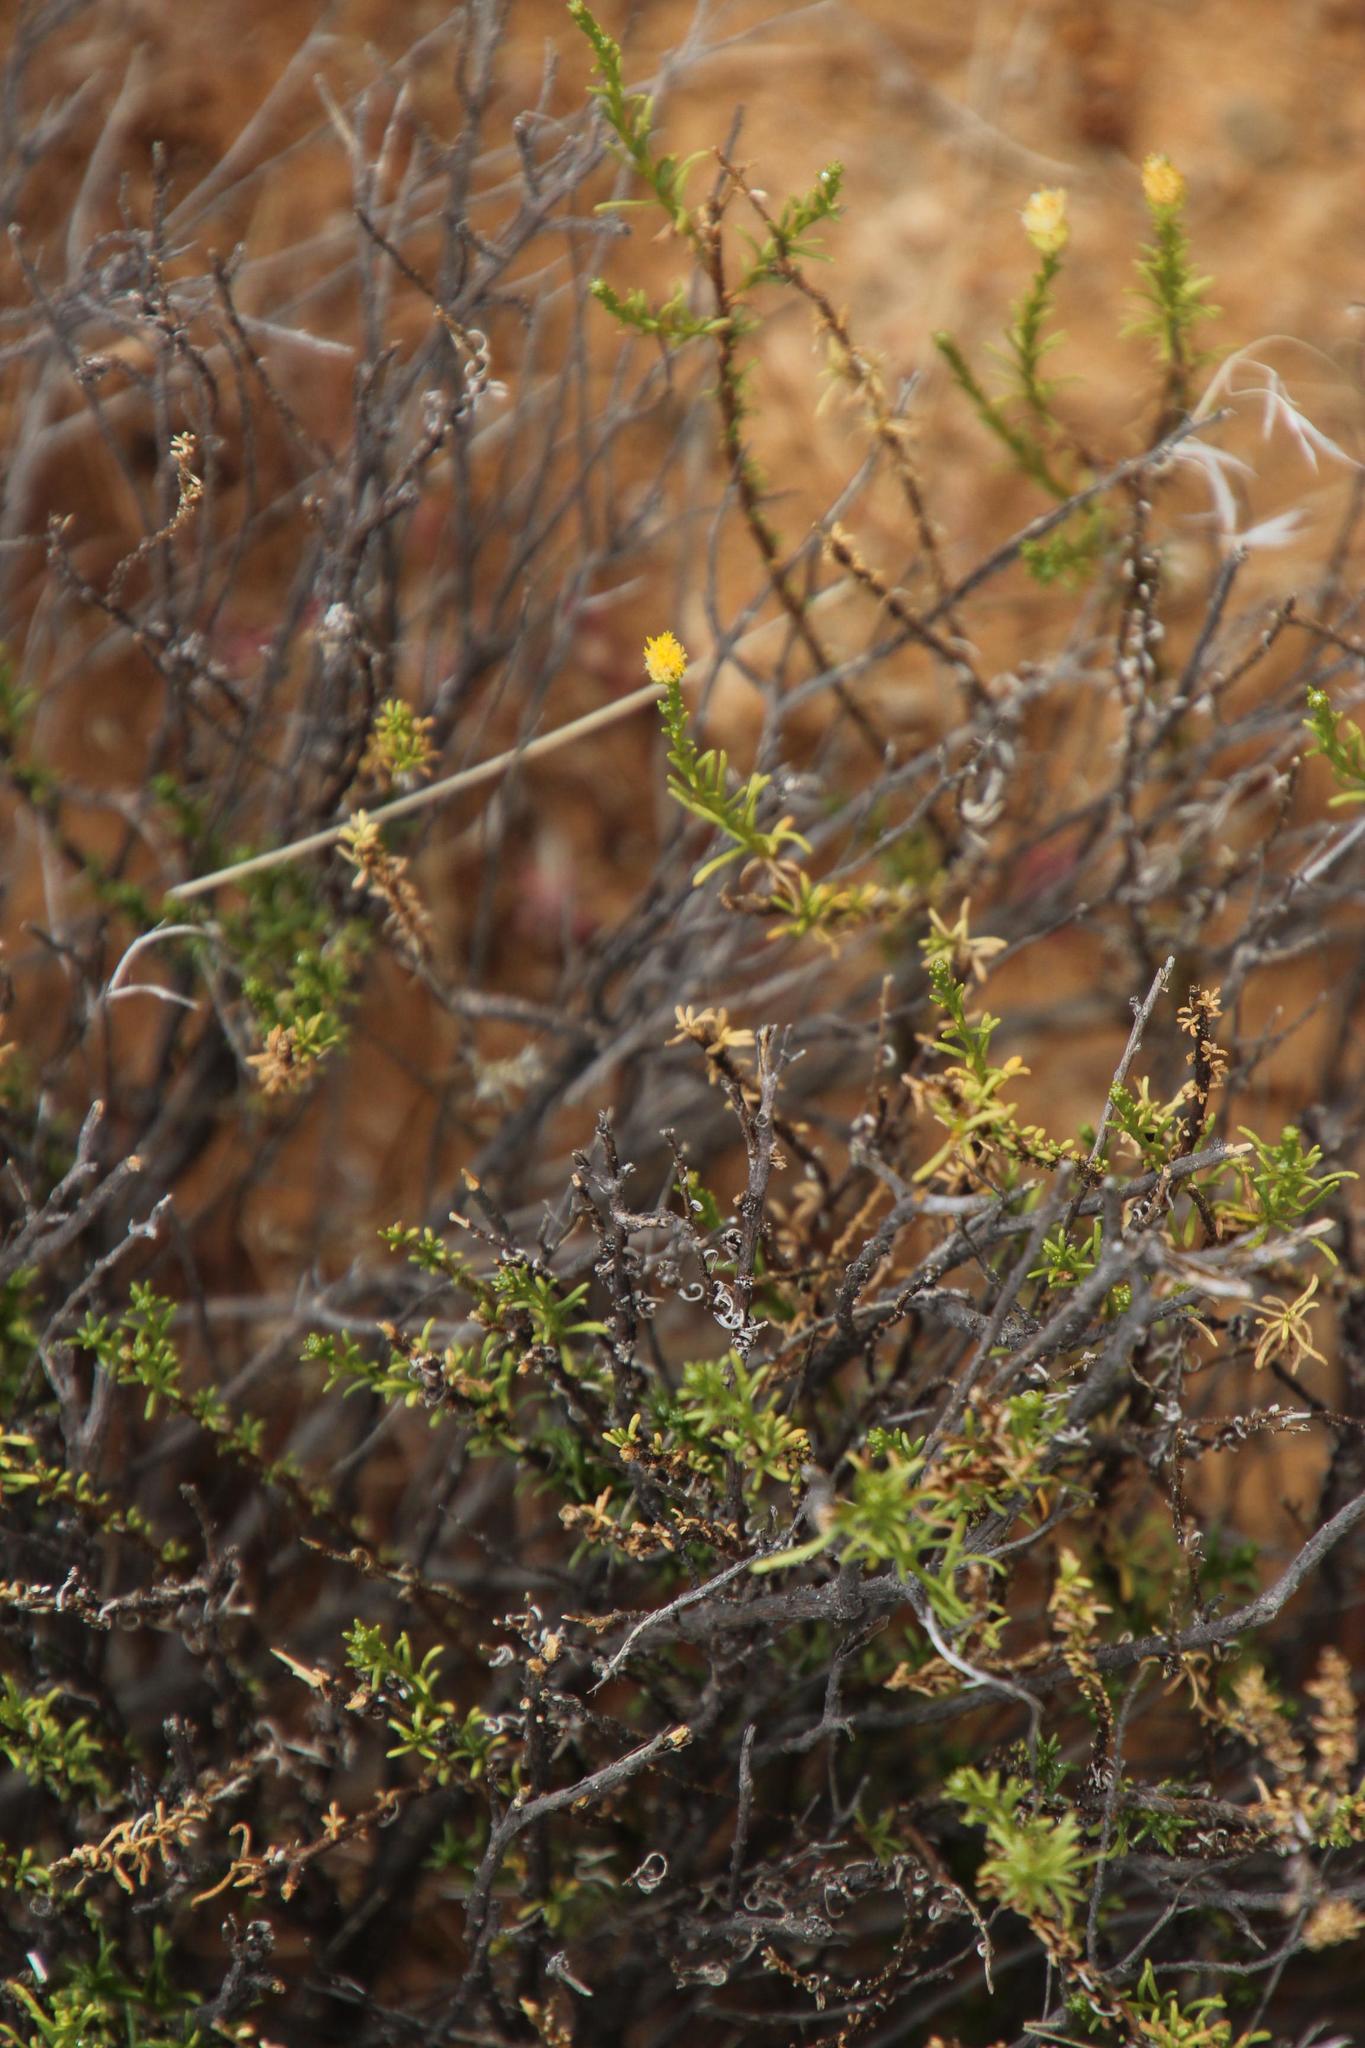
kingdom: Plantae
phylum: Tracheophyta
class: Magnoliopsida
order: Asterales
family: Asteraceae
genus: Chrysocoma
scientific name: Chrysocoma ciliata
